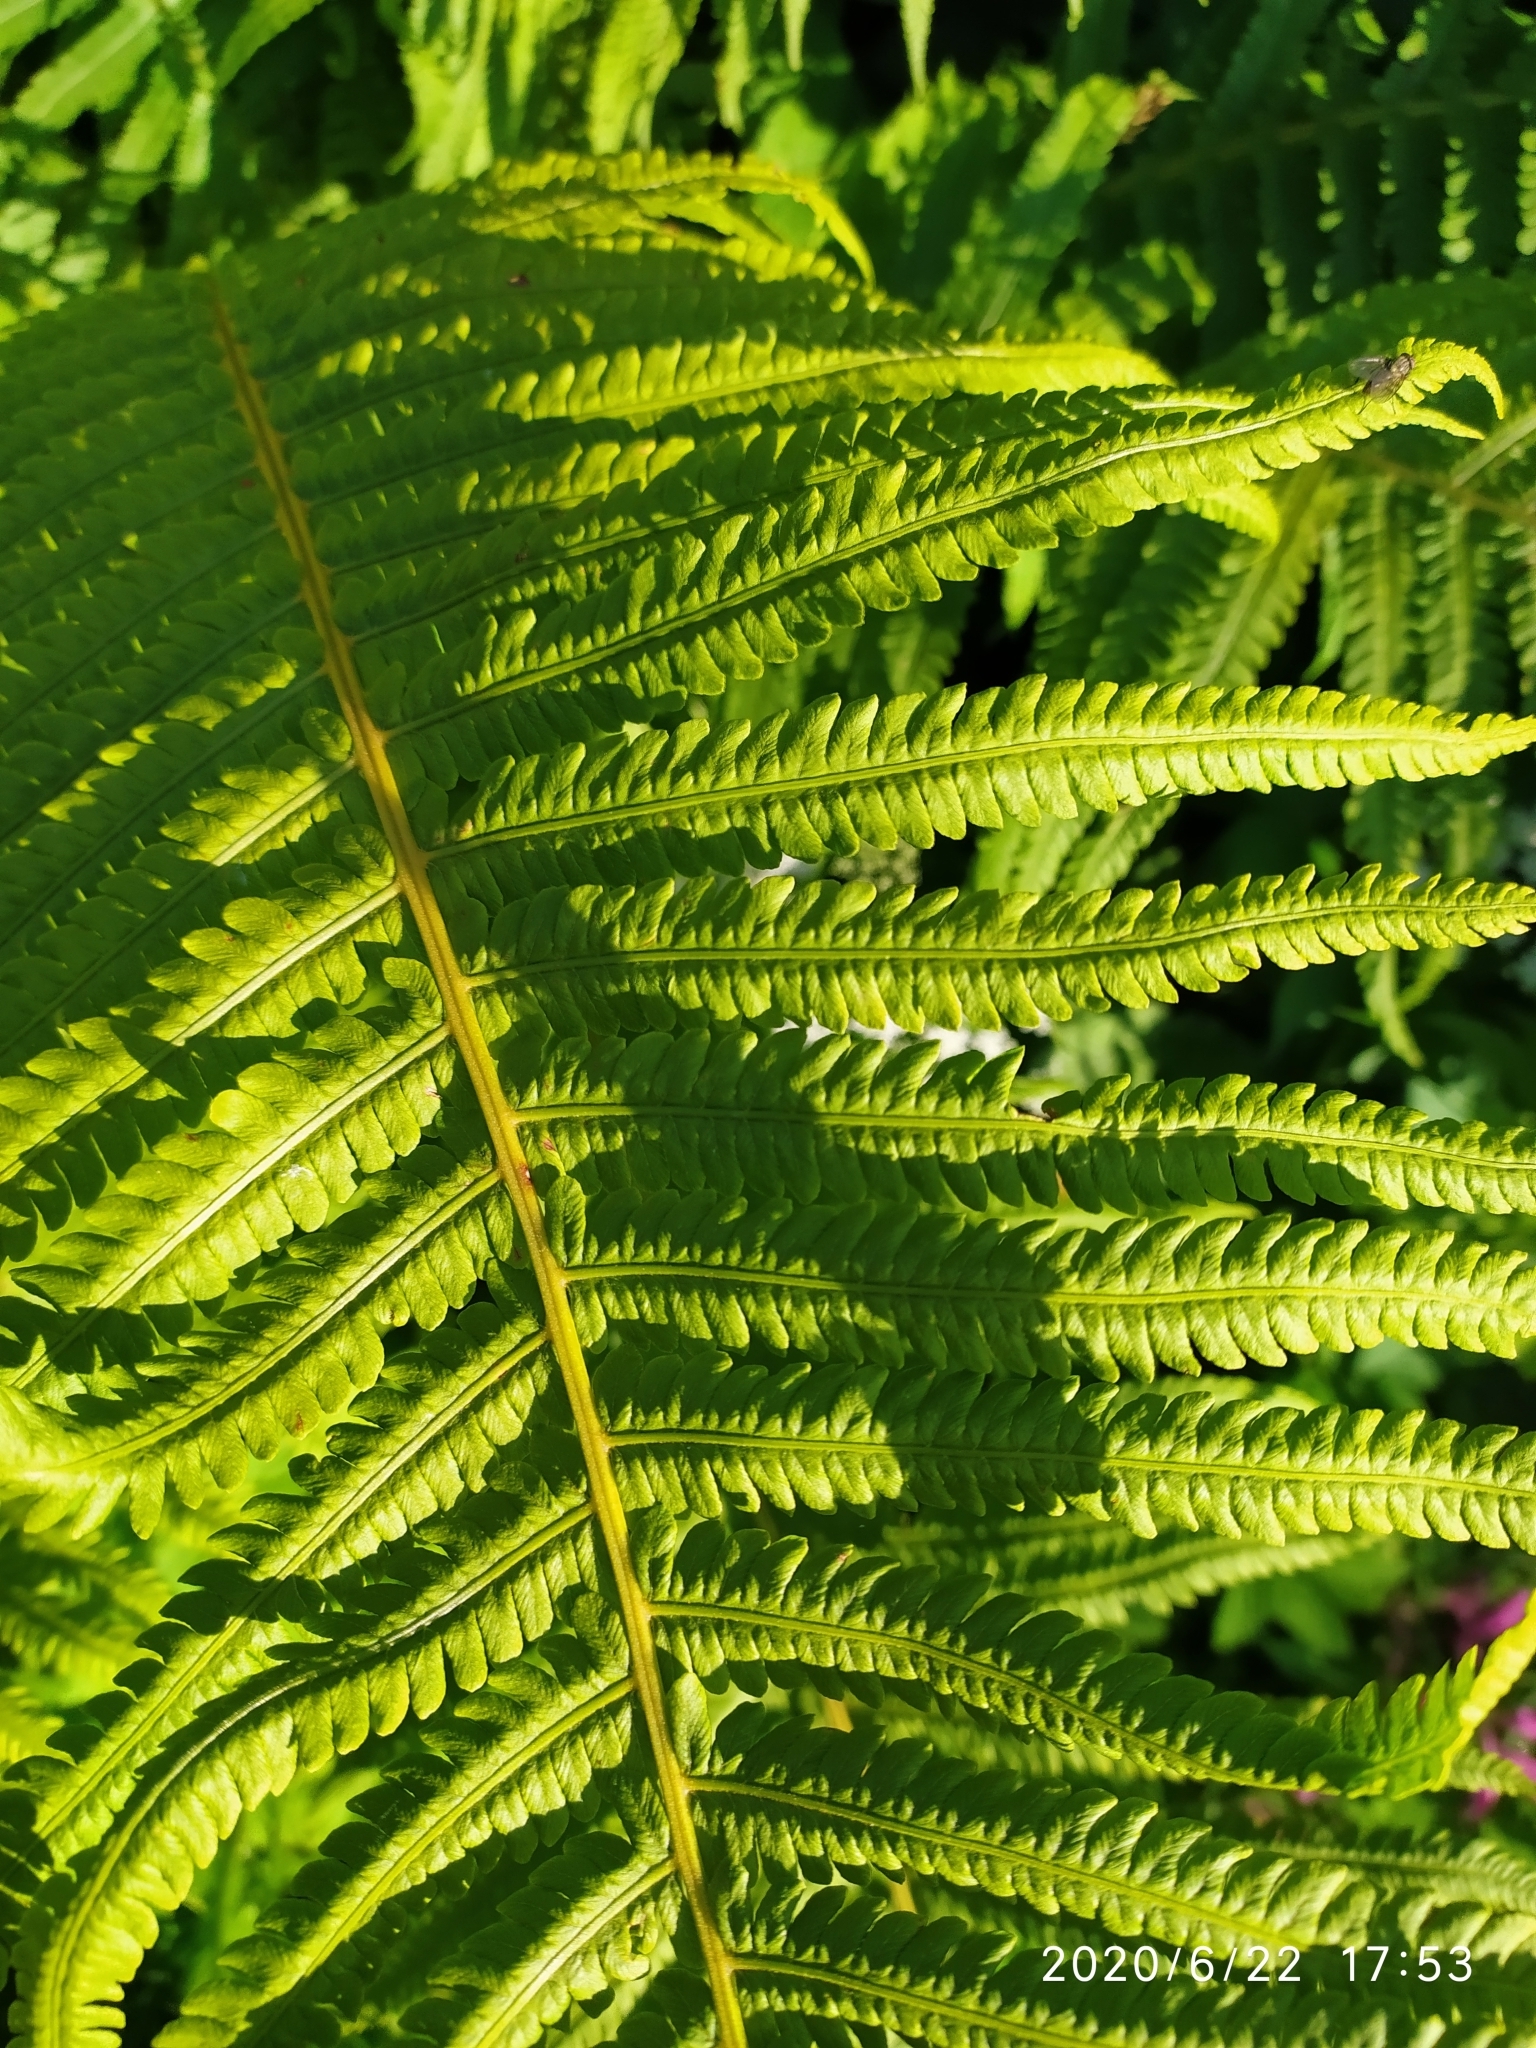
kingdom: Plantae
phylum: Tracheophyta
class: Polypodiopsida
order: Polypodiales
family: Onocleaceae
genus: Matteuccia
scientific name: Matteuccia struthiopteris
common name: Ostrich fern
